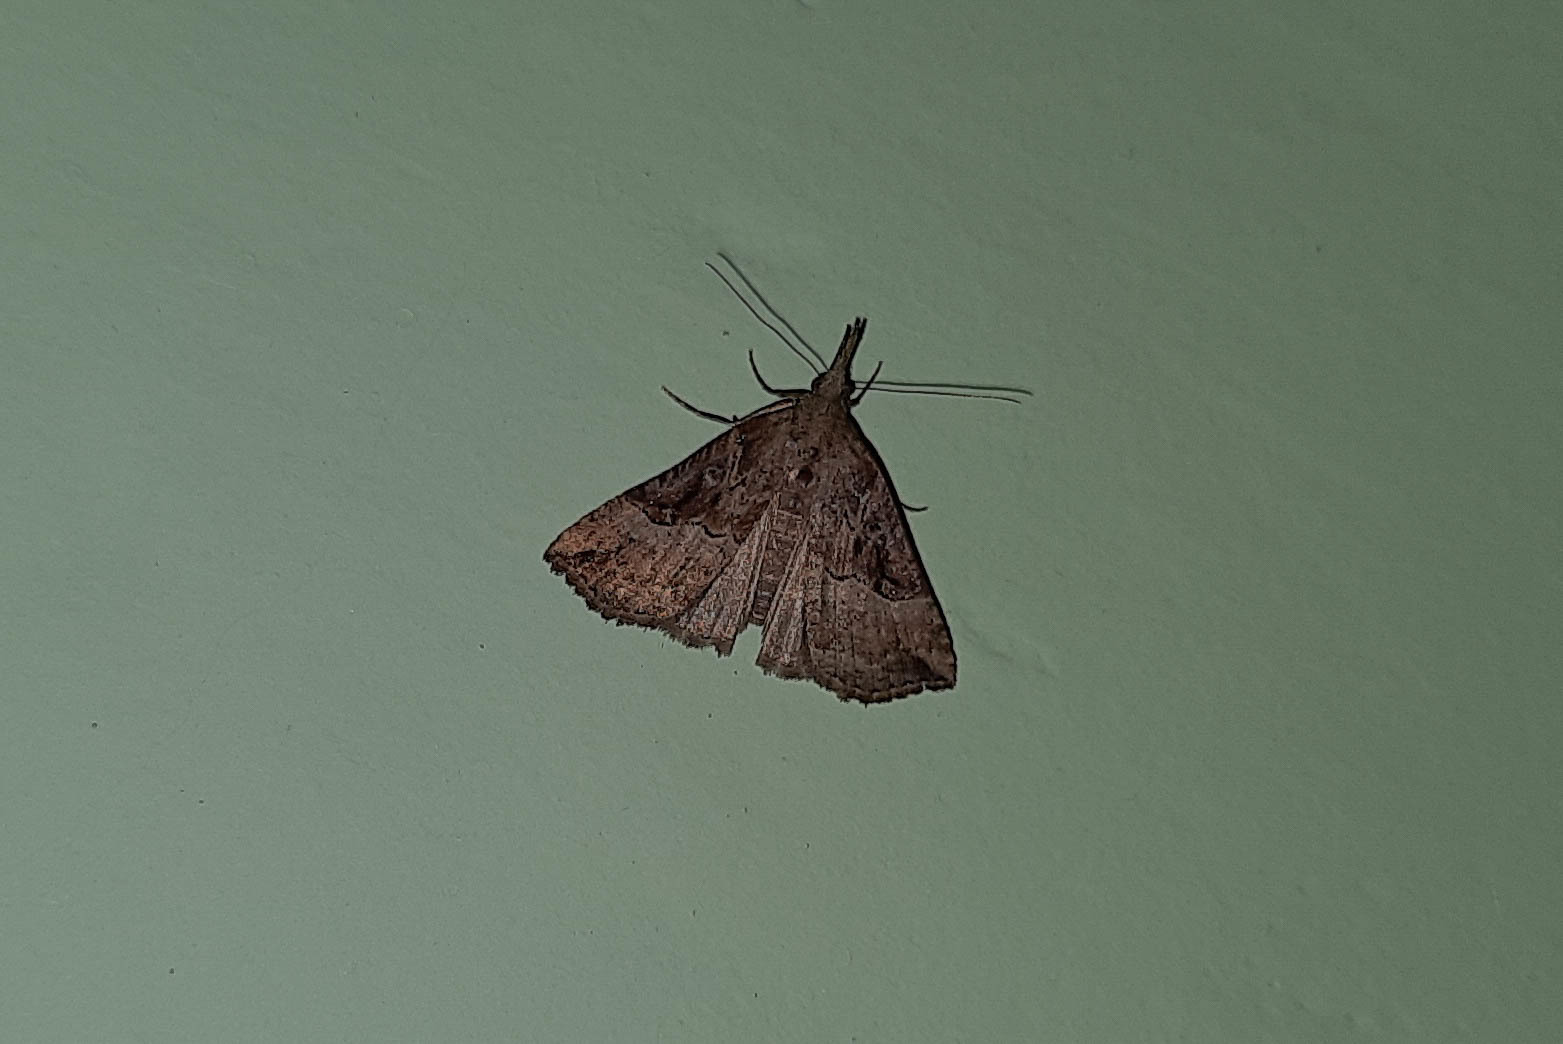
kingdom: Animalia
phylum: Arthropoda
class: Insecta
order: Lepidoptera
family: Erebidae
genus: Hypena
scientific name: Hypena rostralis
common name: Buttoned snout
